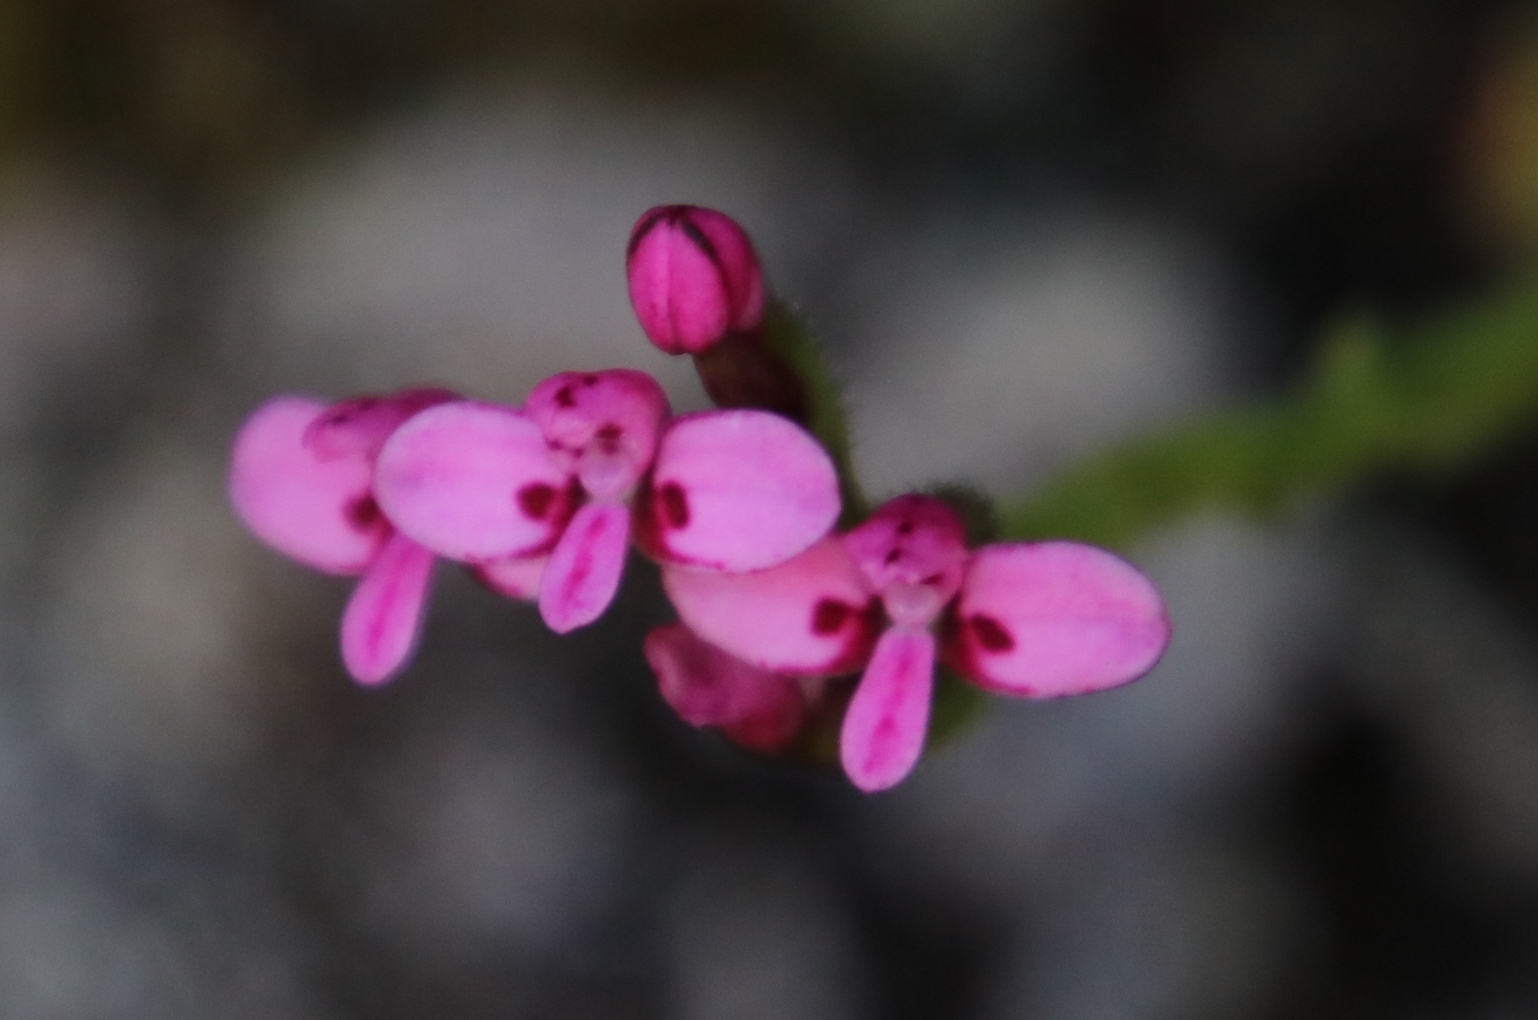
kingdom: Plantae
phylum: Tracheophyta
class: Liliopsida
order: Asparagales
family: Orchidaceae
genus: Disa
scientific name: Disa glandulosa
